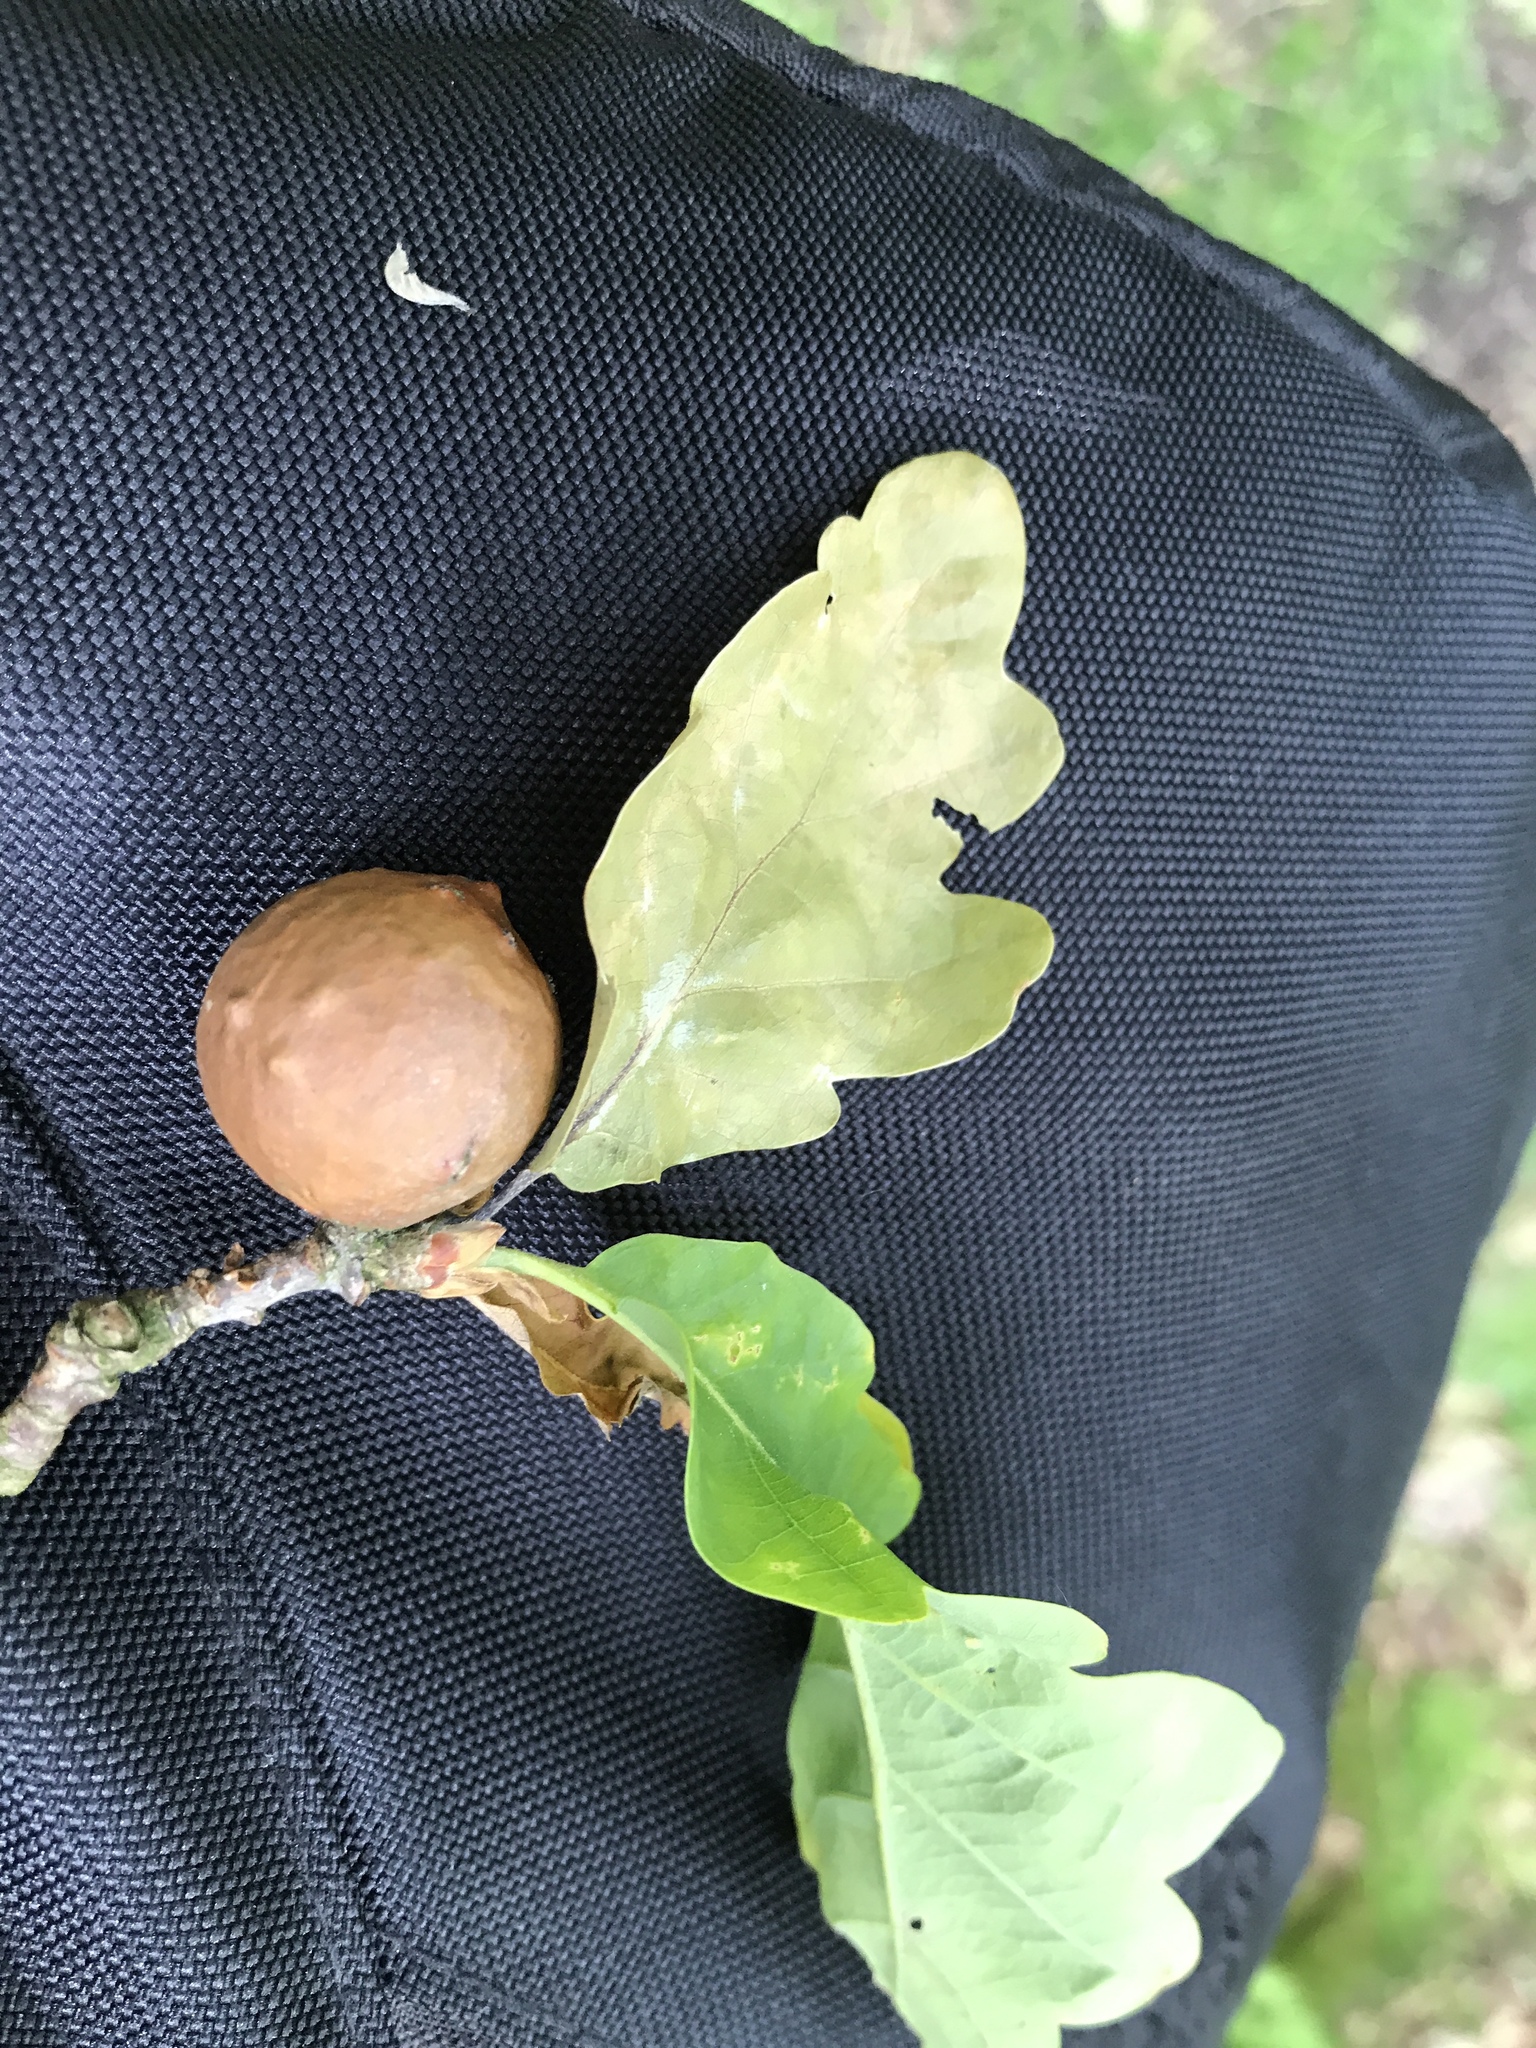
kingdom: Animalia
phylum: Arthropoda
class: Insecta
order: Hymenoptera
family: Cynipidae
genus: Andricus
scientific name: Andricus kollari
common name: Marble gall
